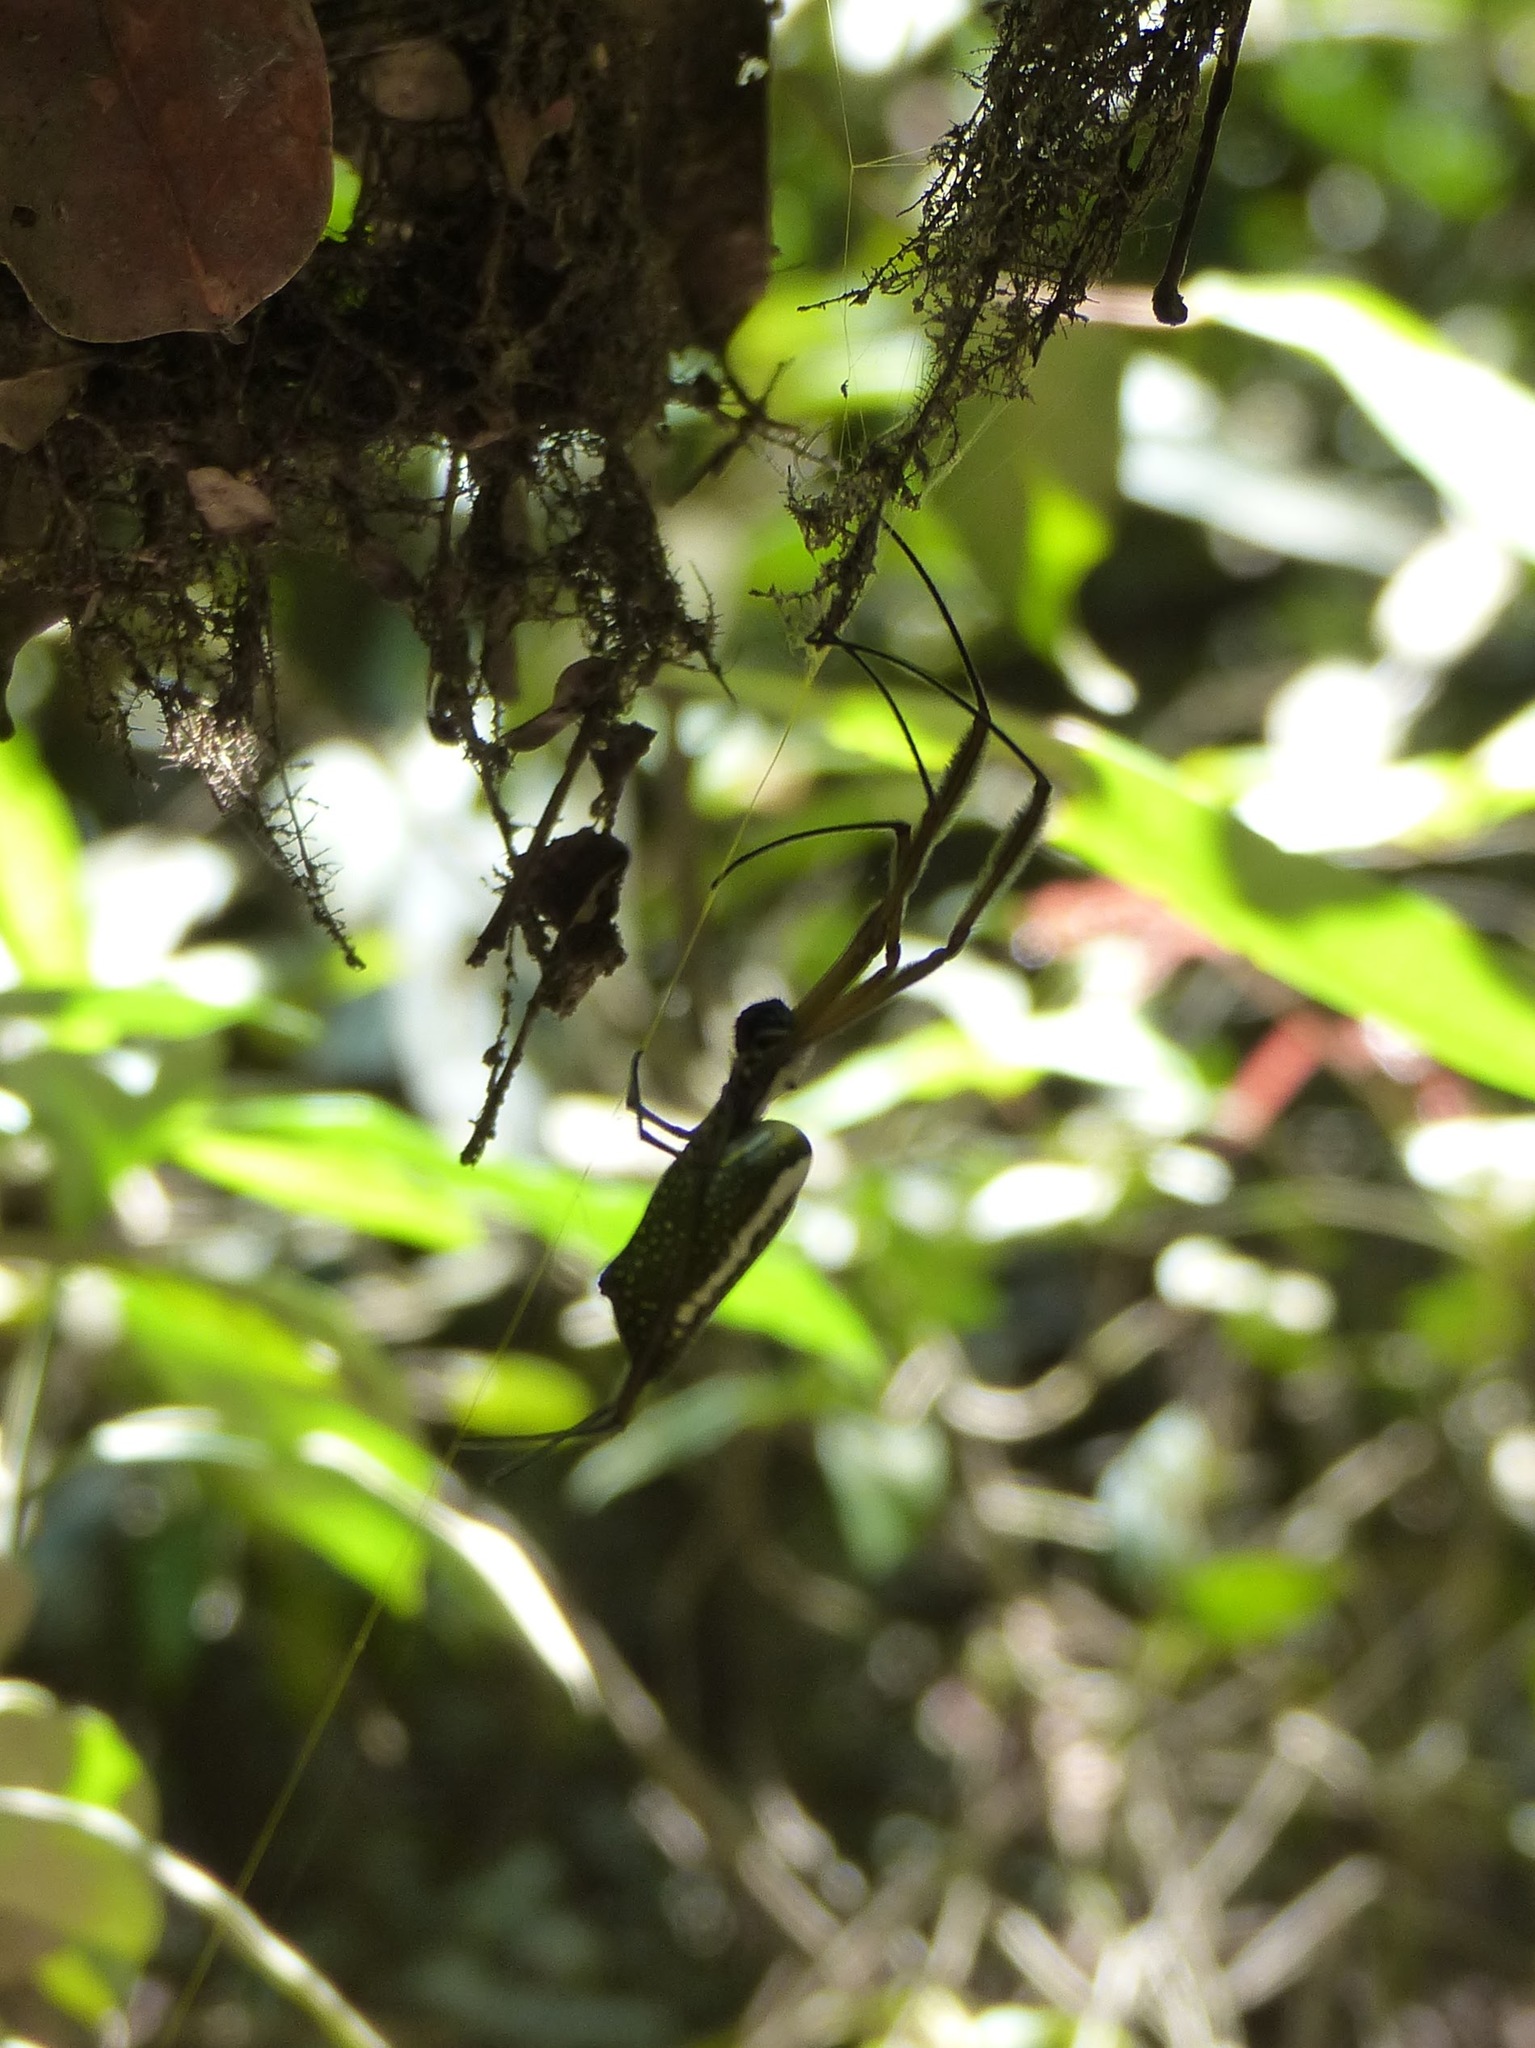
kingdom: Animalia
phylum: Arthropoda
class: Arachnida
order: Araneae
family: Araneidae
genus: Trichonephila
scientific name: Trichonephila clavipes
